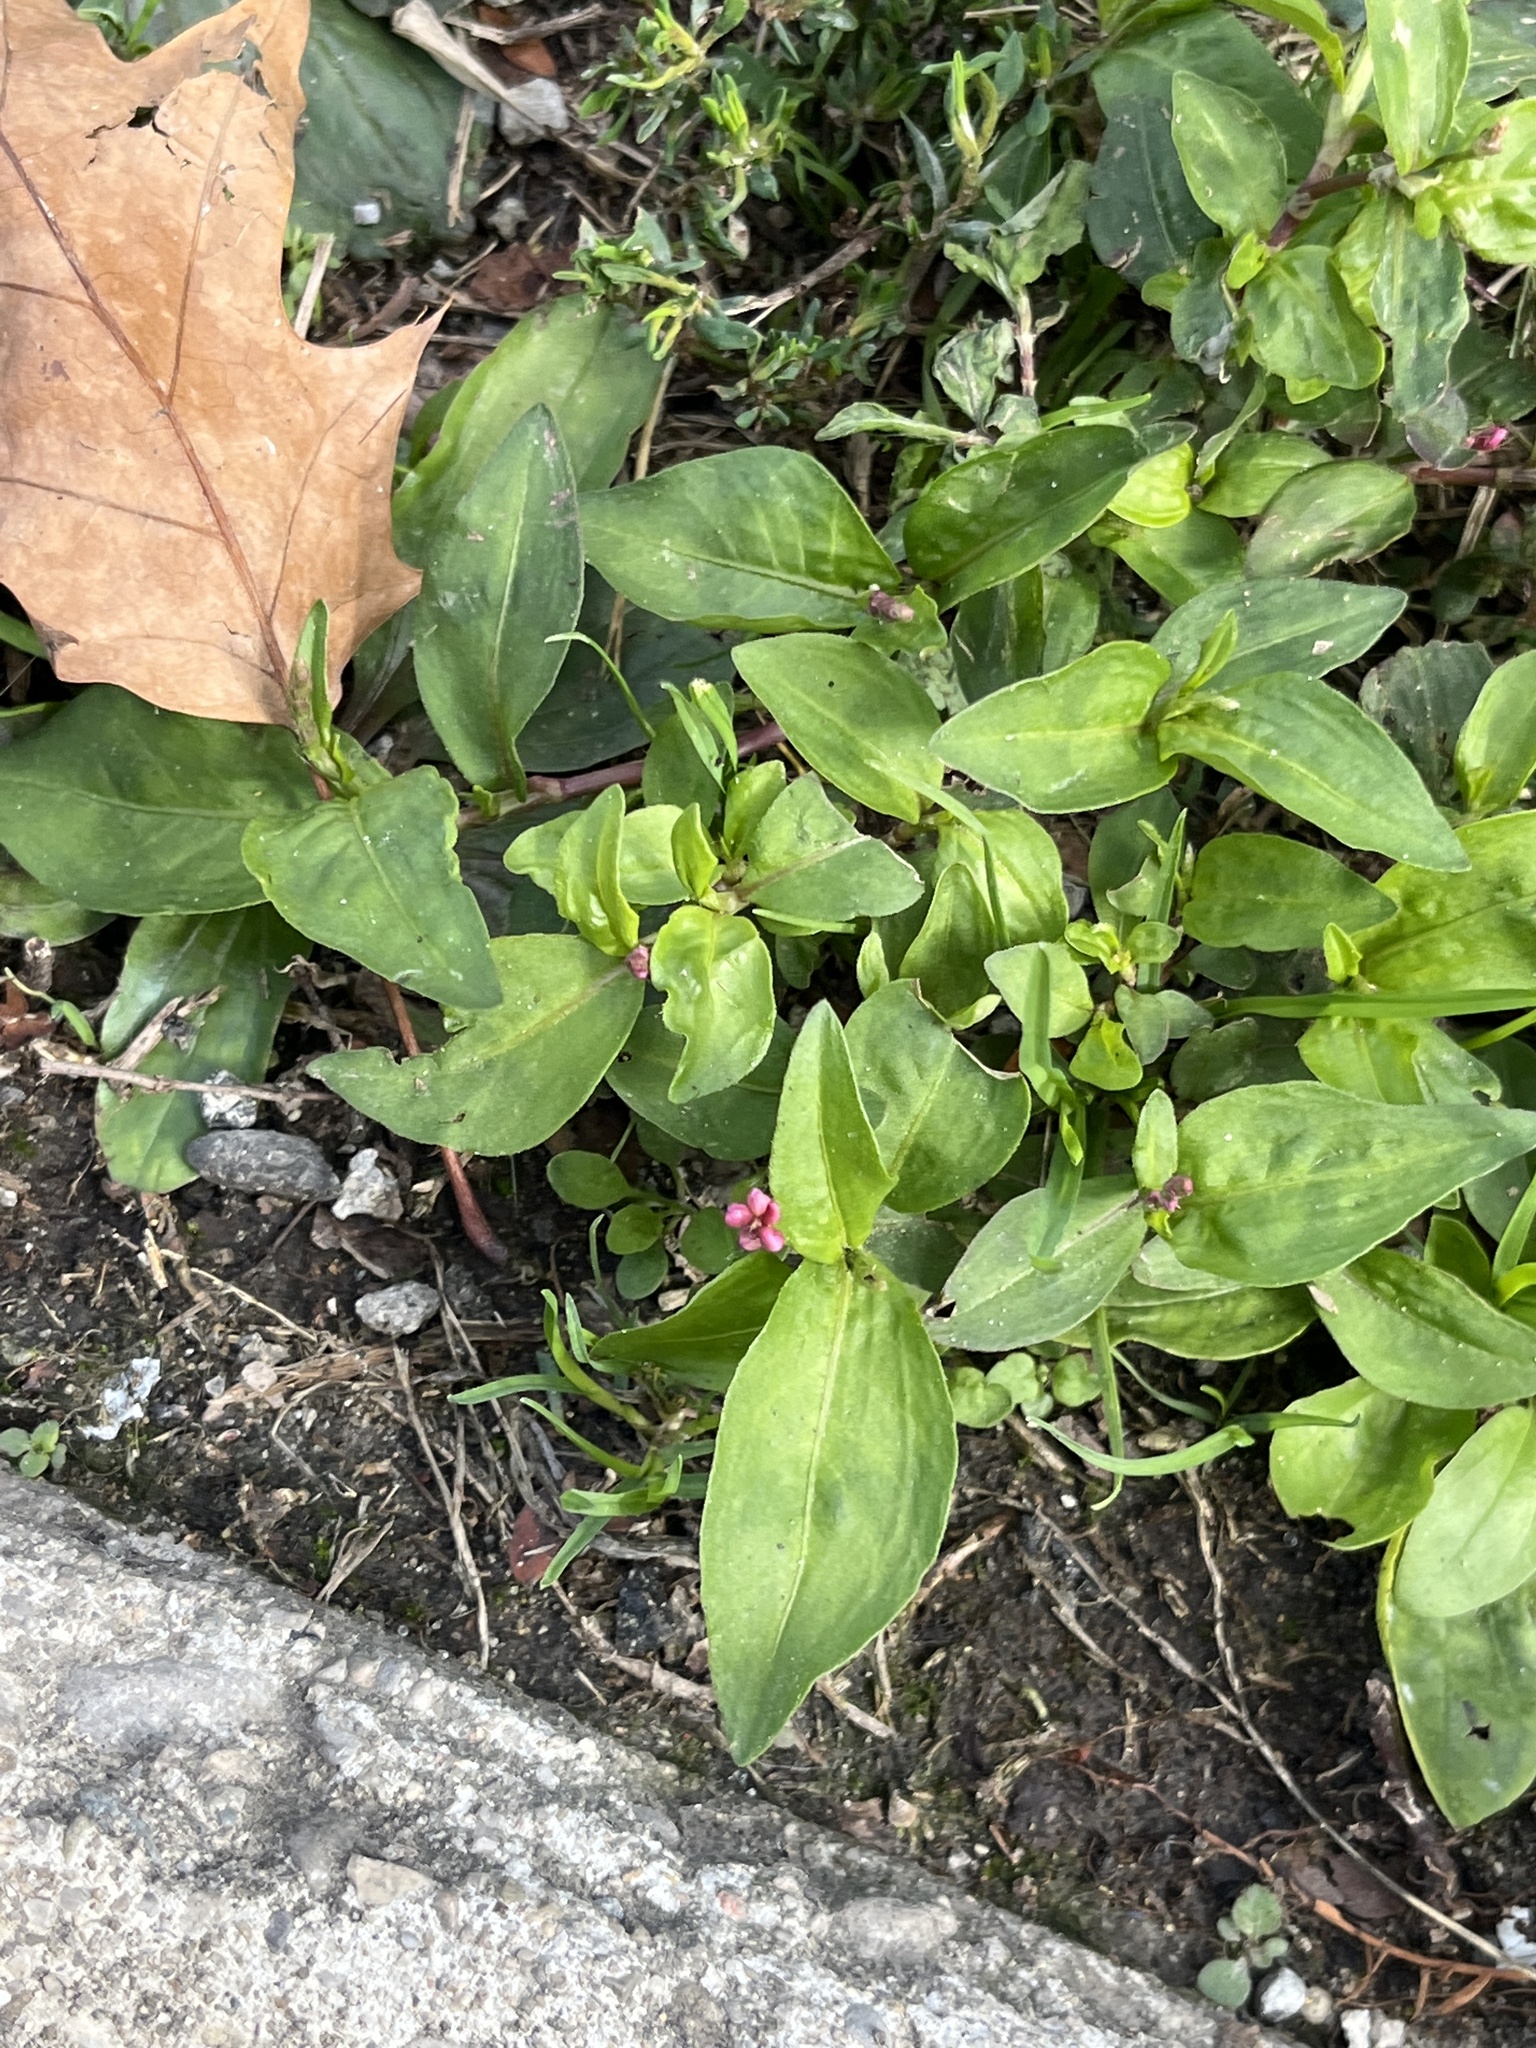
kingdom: Plantae
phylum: Tracheophyta
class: Magnoliopsida
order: Caryophyllales
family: Polygonaceae
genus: Persicaria
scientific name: Persicaria longiseta
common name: Bristly lady's-thumb
